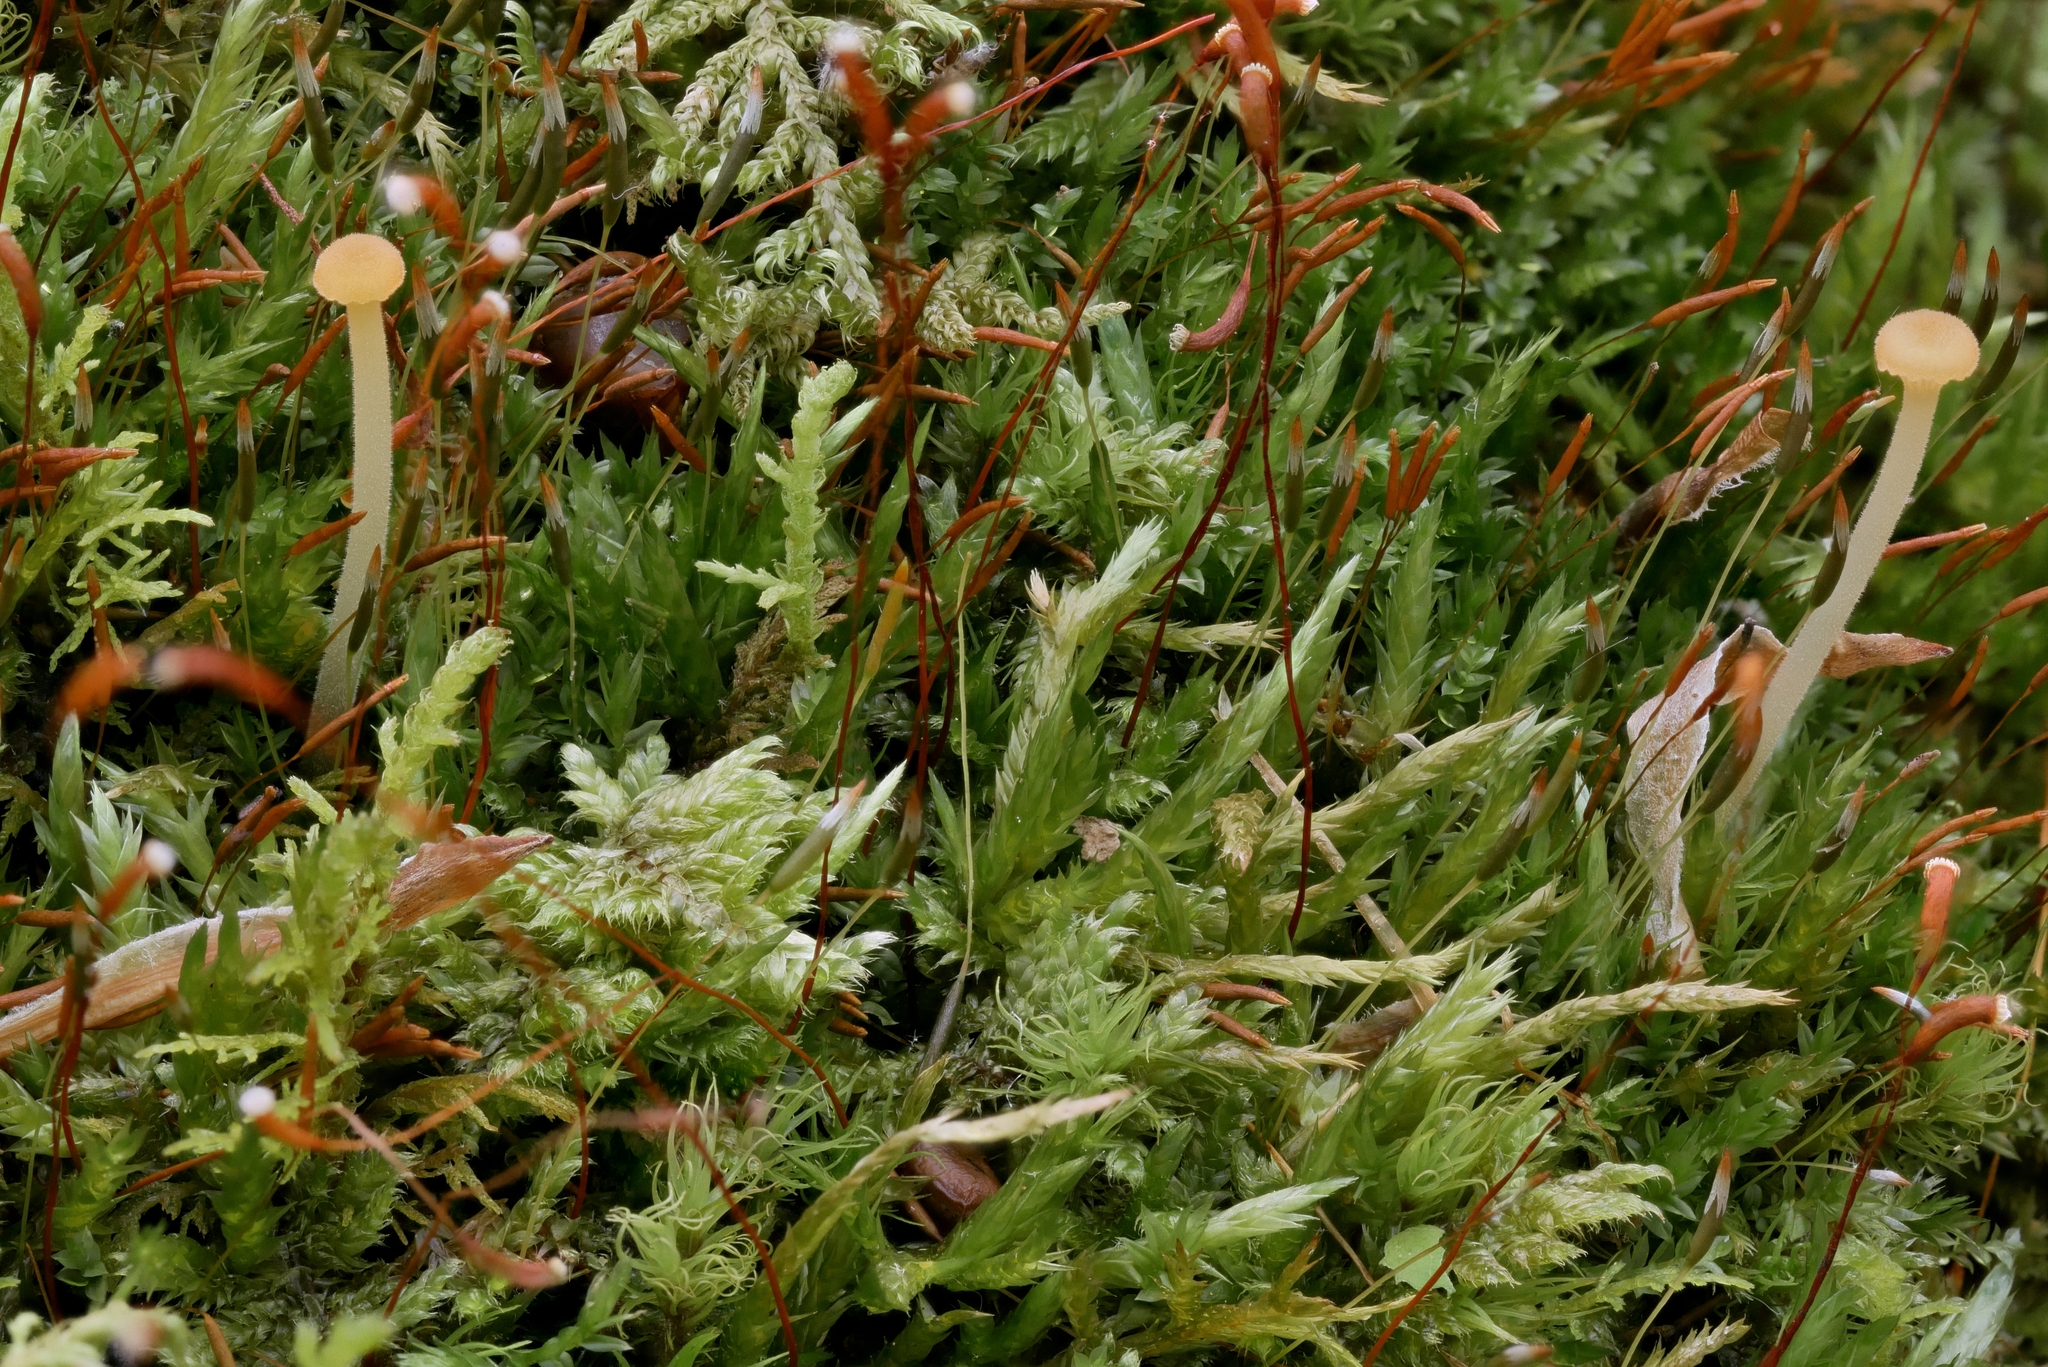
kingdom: Fungi
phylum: Basidiomycota
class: Agaricomycetes
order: Hymenochaetales
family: Rickenellaceae
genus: Rickenella
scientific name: Rickenella fibula
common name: Orange mosscap
